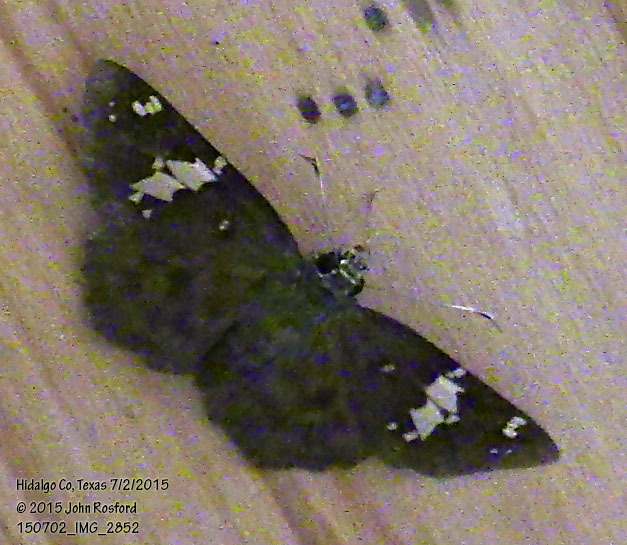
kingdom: Animalia
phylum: Arthropoda
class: Insecta
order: Lepidoptera
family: Hesperiidae
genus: Celaenorrhinus
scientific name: Celaenorrhinus fritzgaertneri
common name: Fritzgaertner's flat
